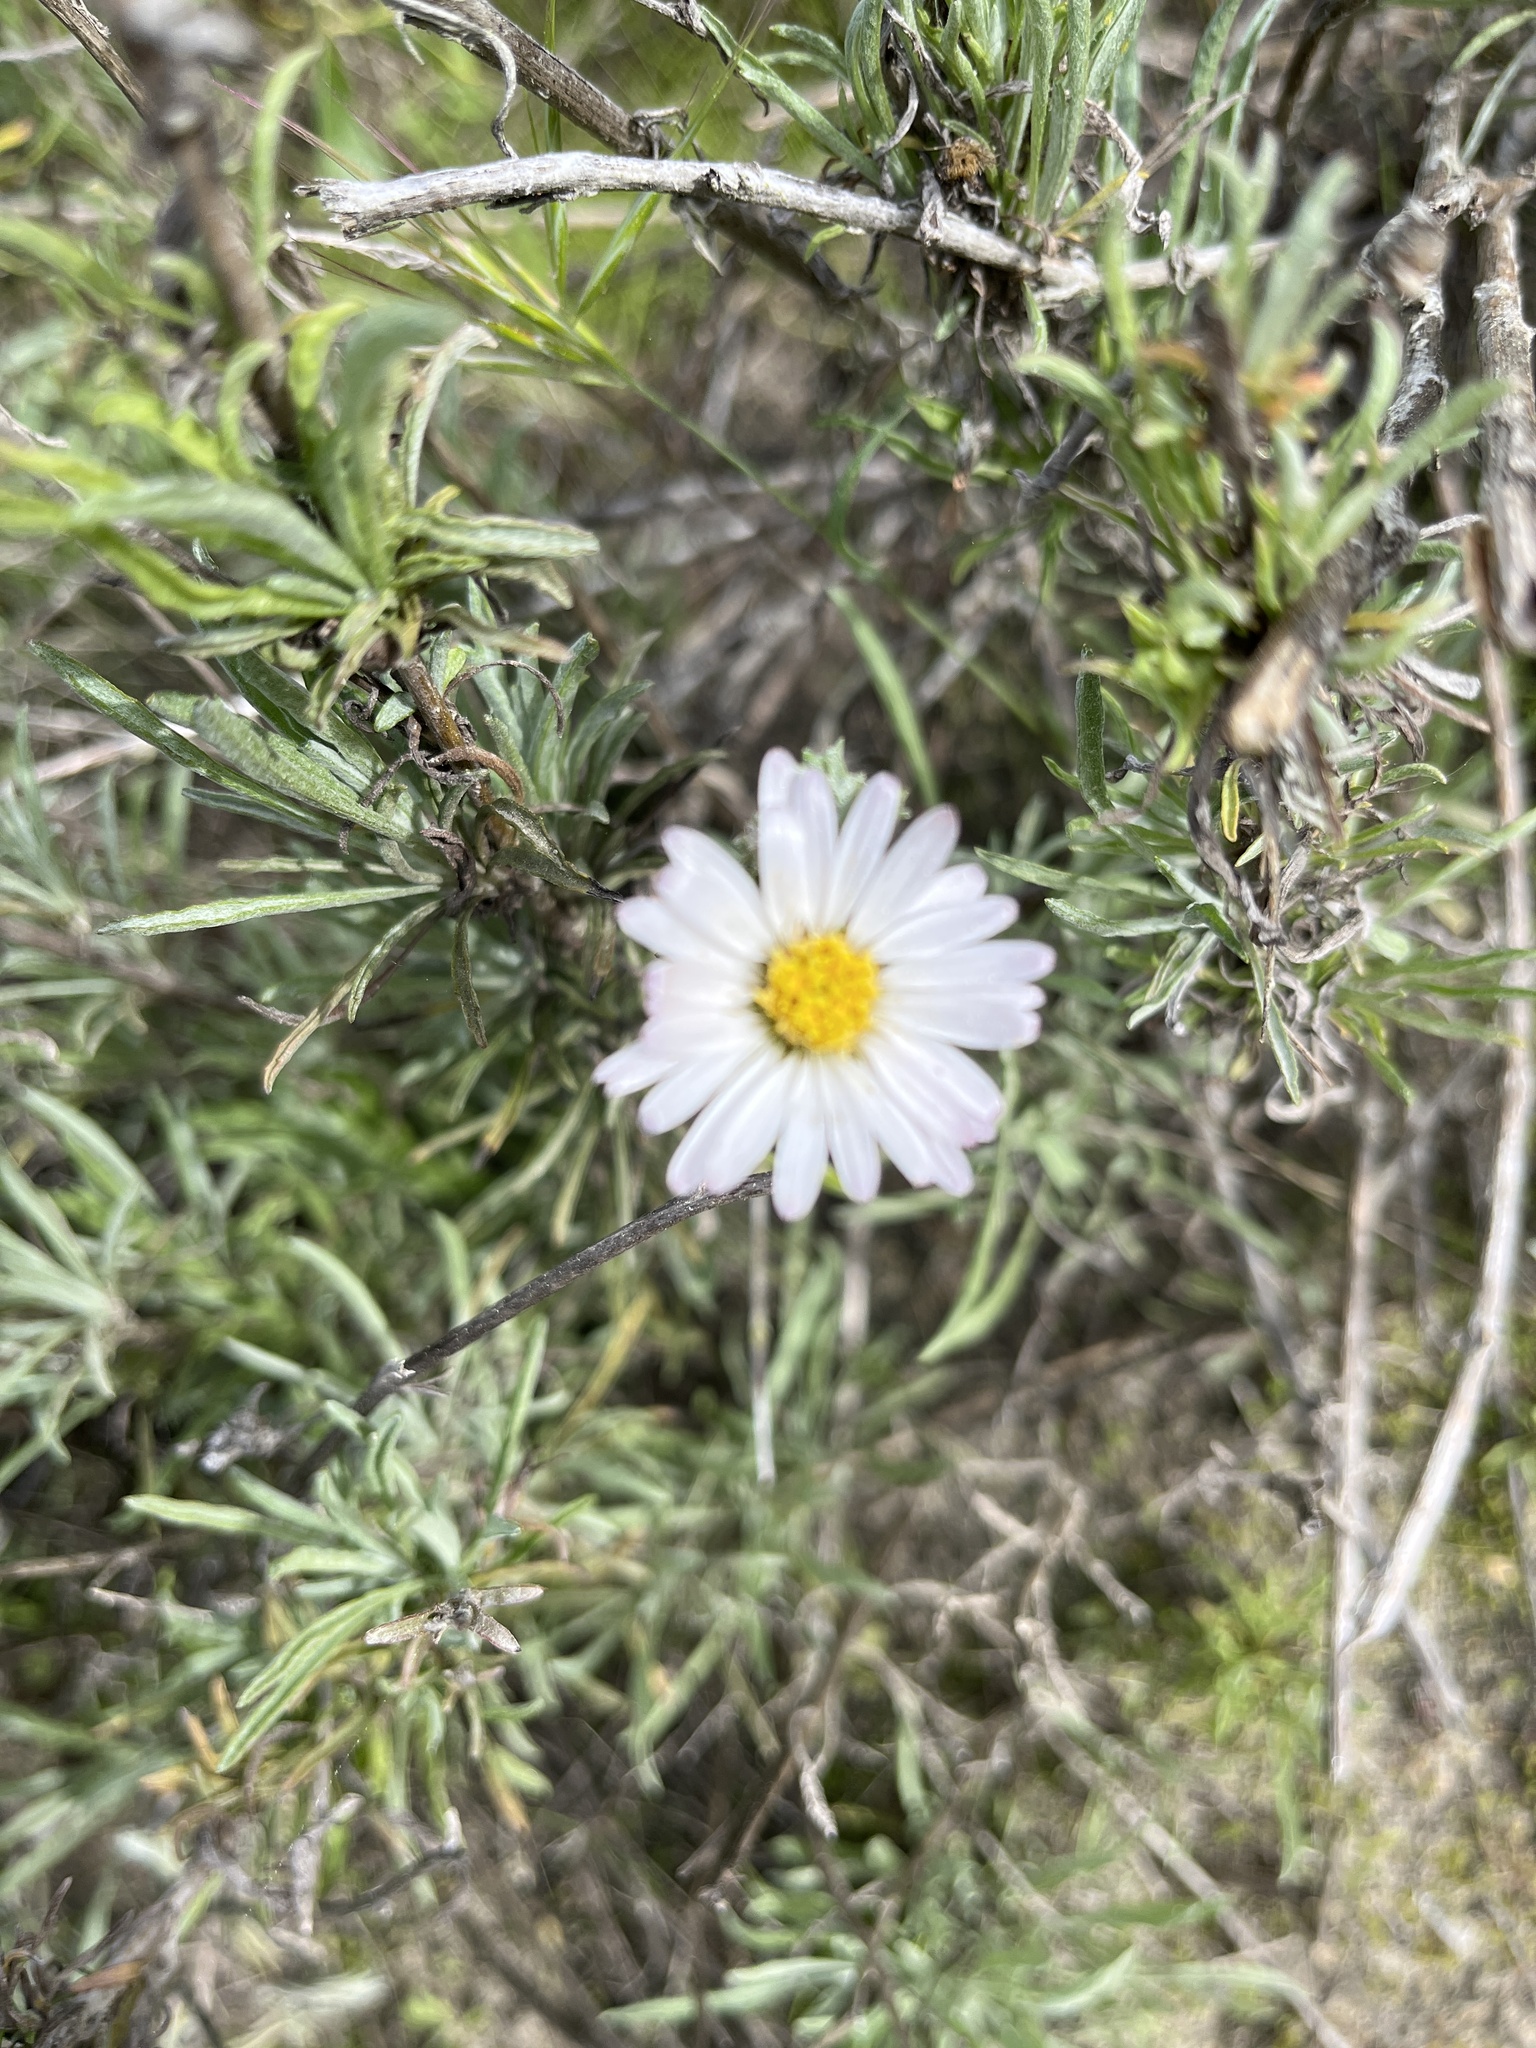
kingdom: Plantae
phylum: Tracheophyta
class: Magnoliopsida
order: Asterales
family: Asteraceae
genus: Corethrogyne
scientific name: Corethrogyne filaginifolia
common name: Sand-aster
